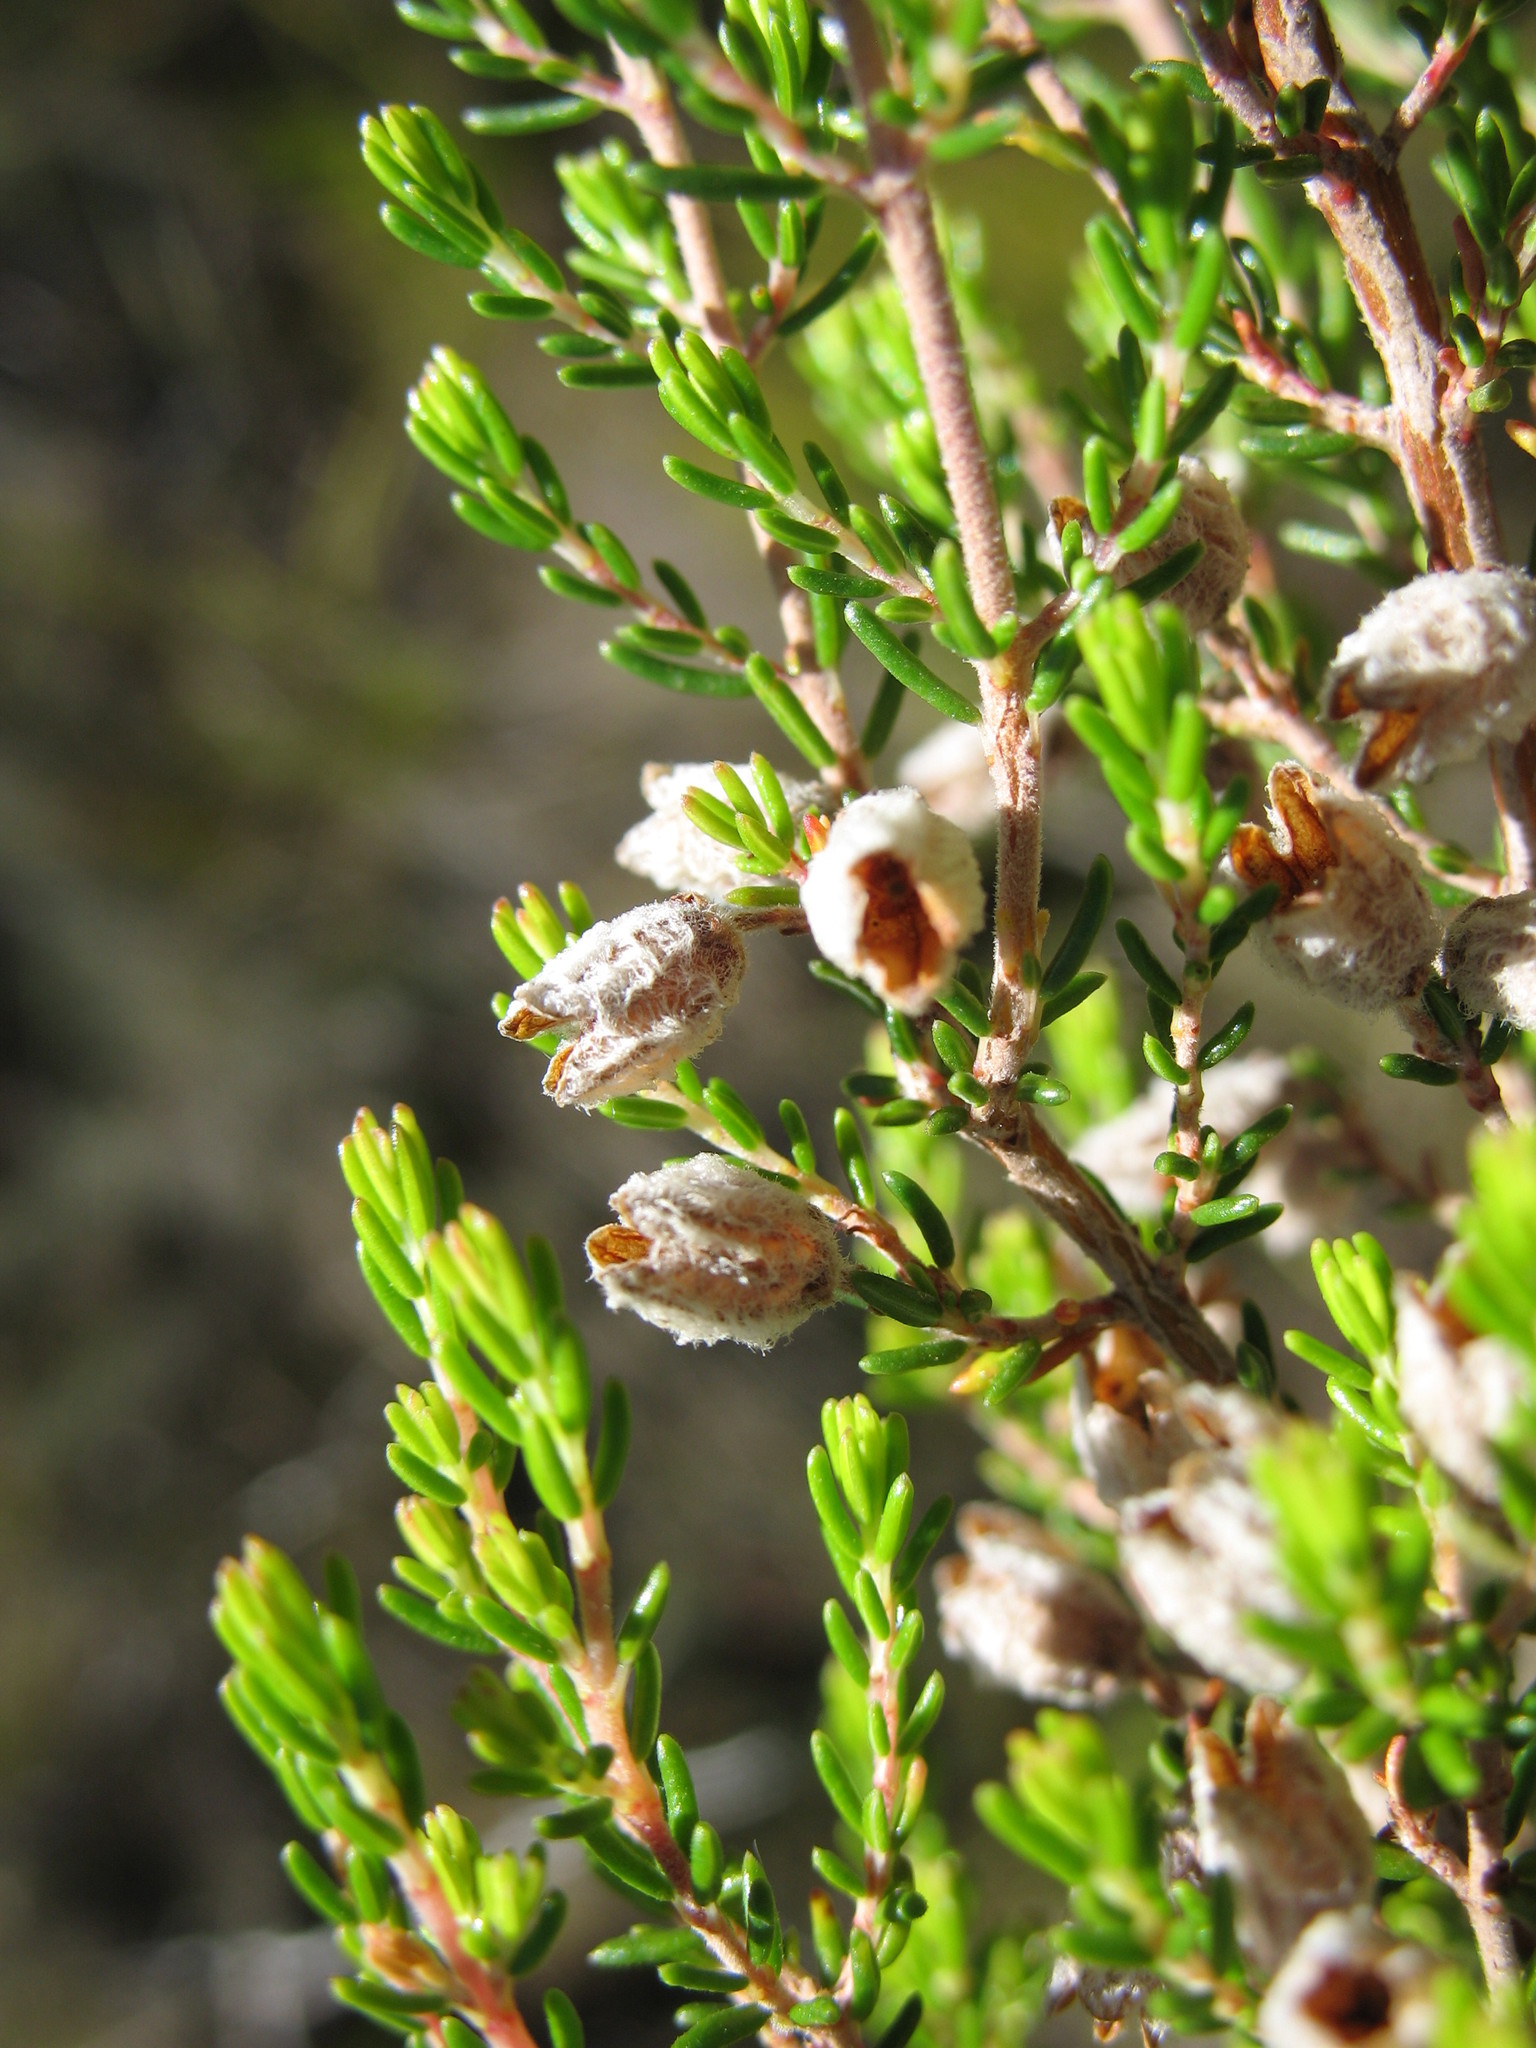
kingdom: Plantae
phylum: Tracheophyta
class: Magnoliopsida
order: Ericales
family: Ericaceae
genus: Erica
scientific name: Erica peziza
